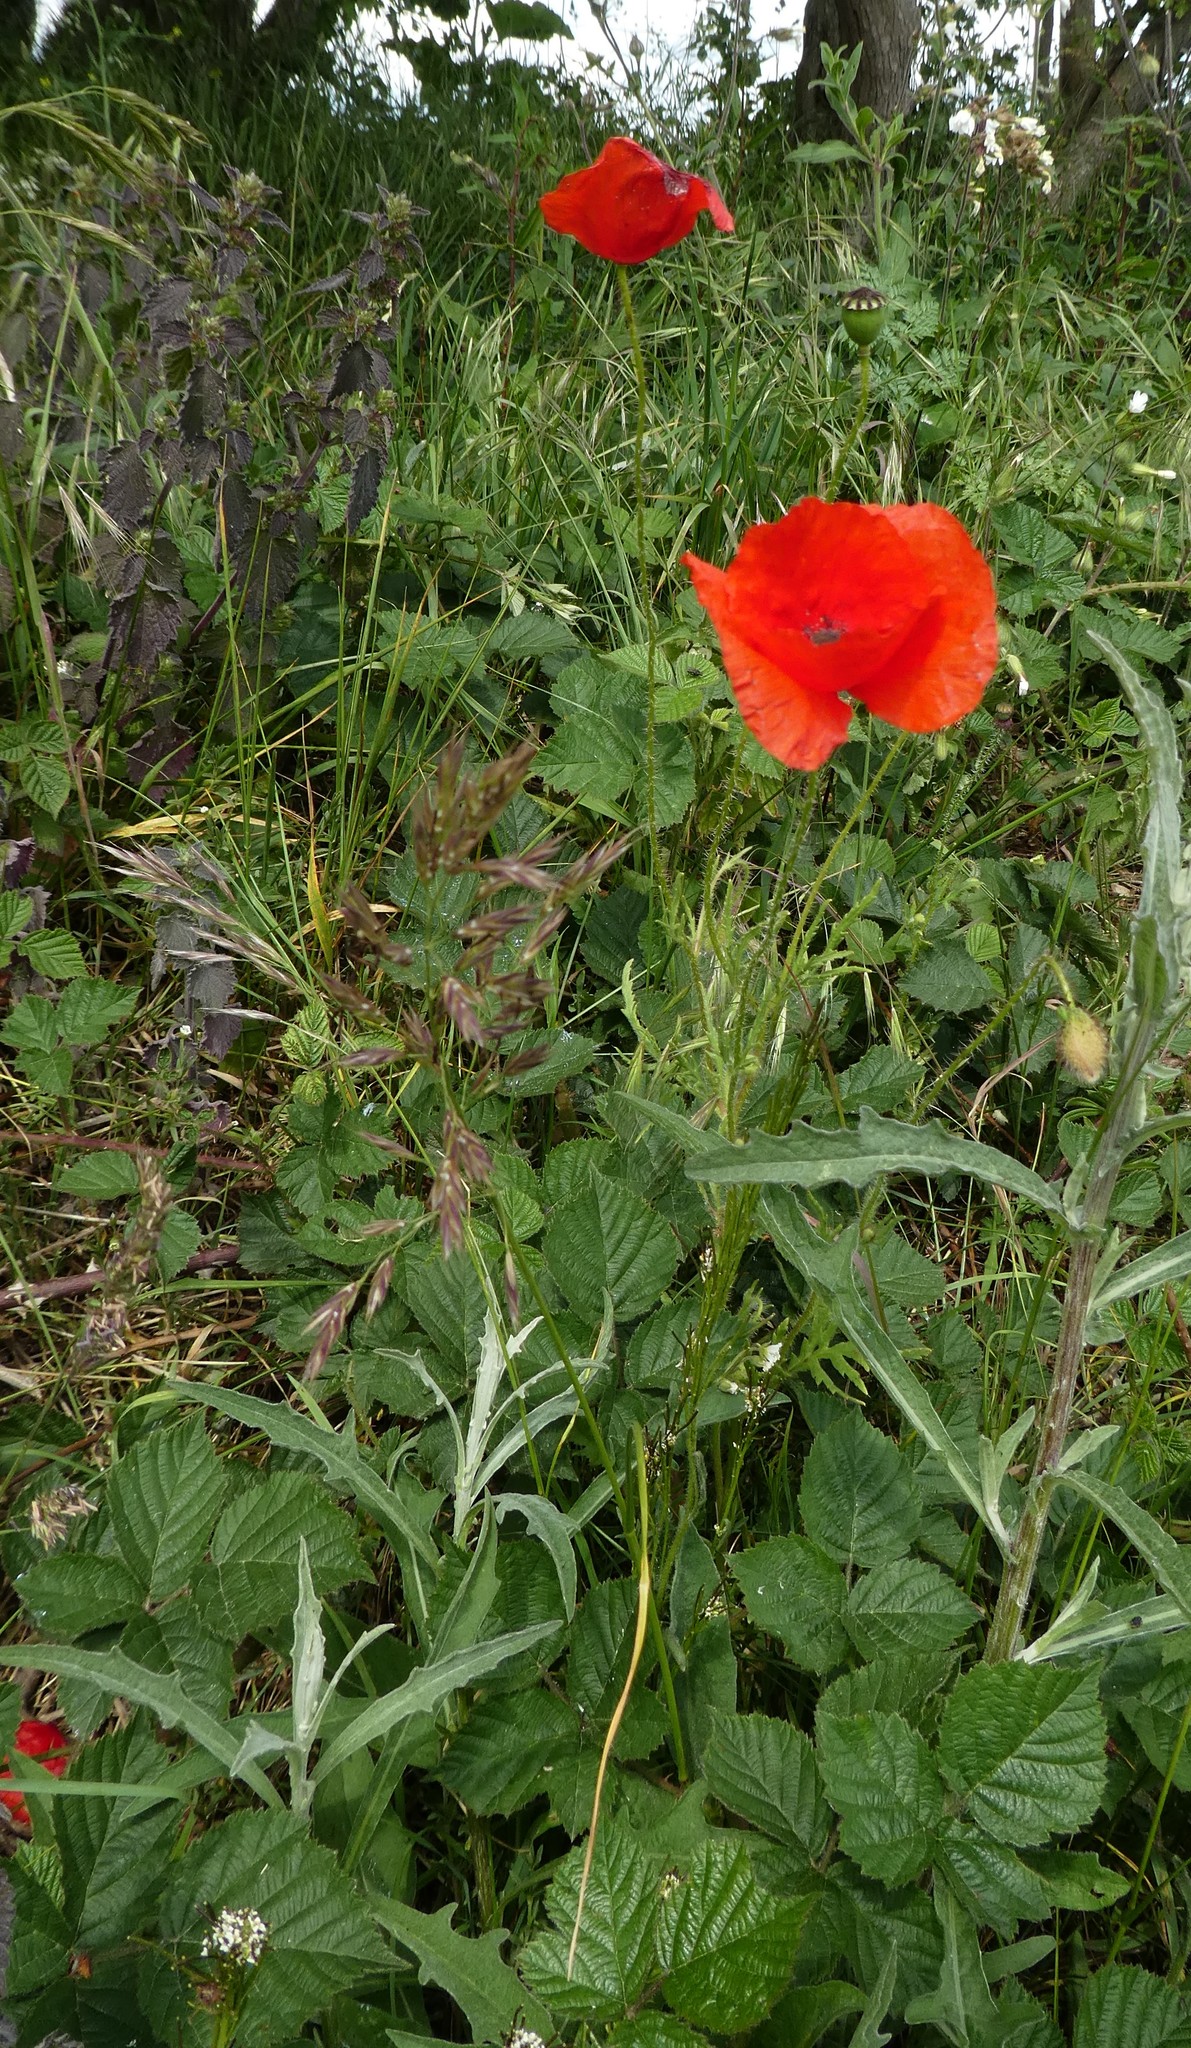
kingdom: Plantae
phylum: Tracheophyta
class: Magnoliopsida
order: Ranunculales
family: Papaveraceae
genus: Papaver
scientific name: Papaver rhoeas
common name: Corn poppy
